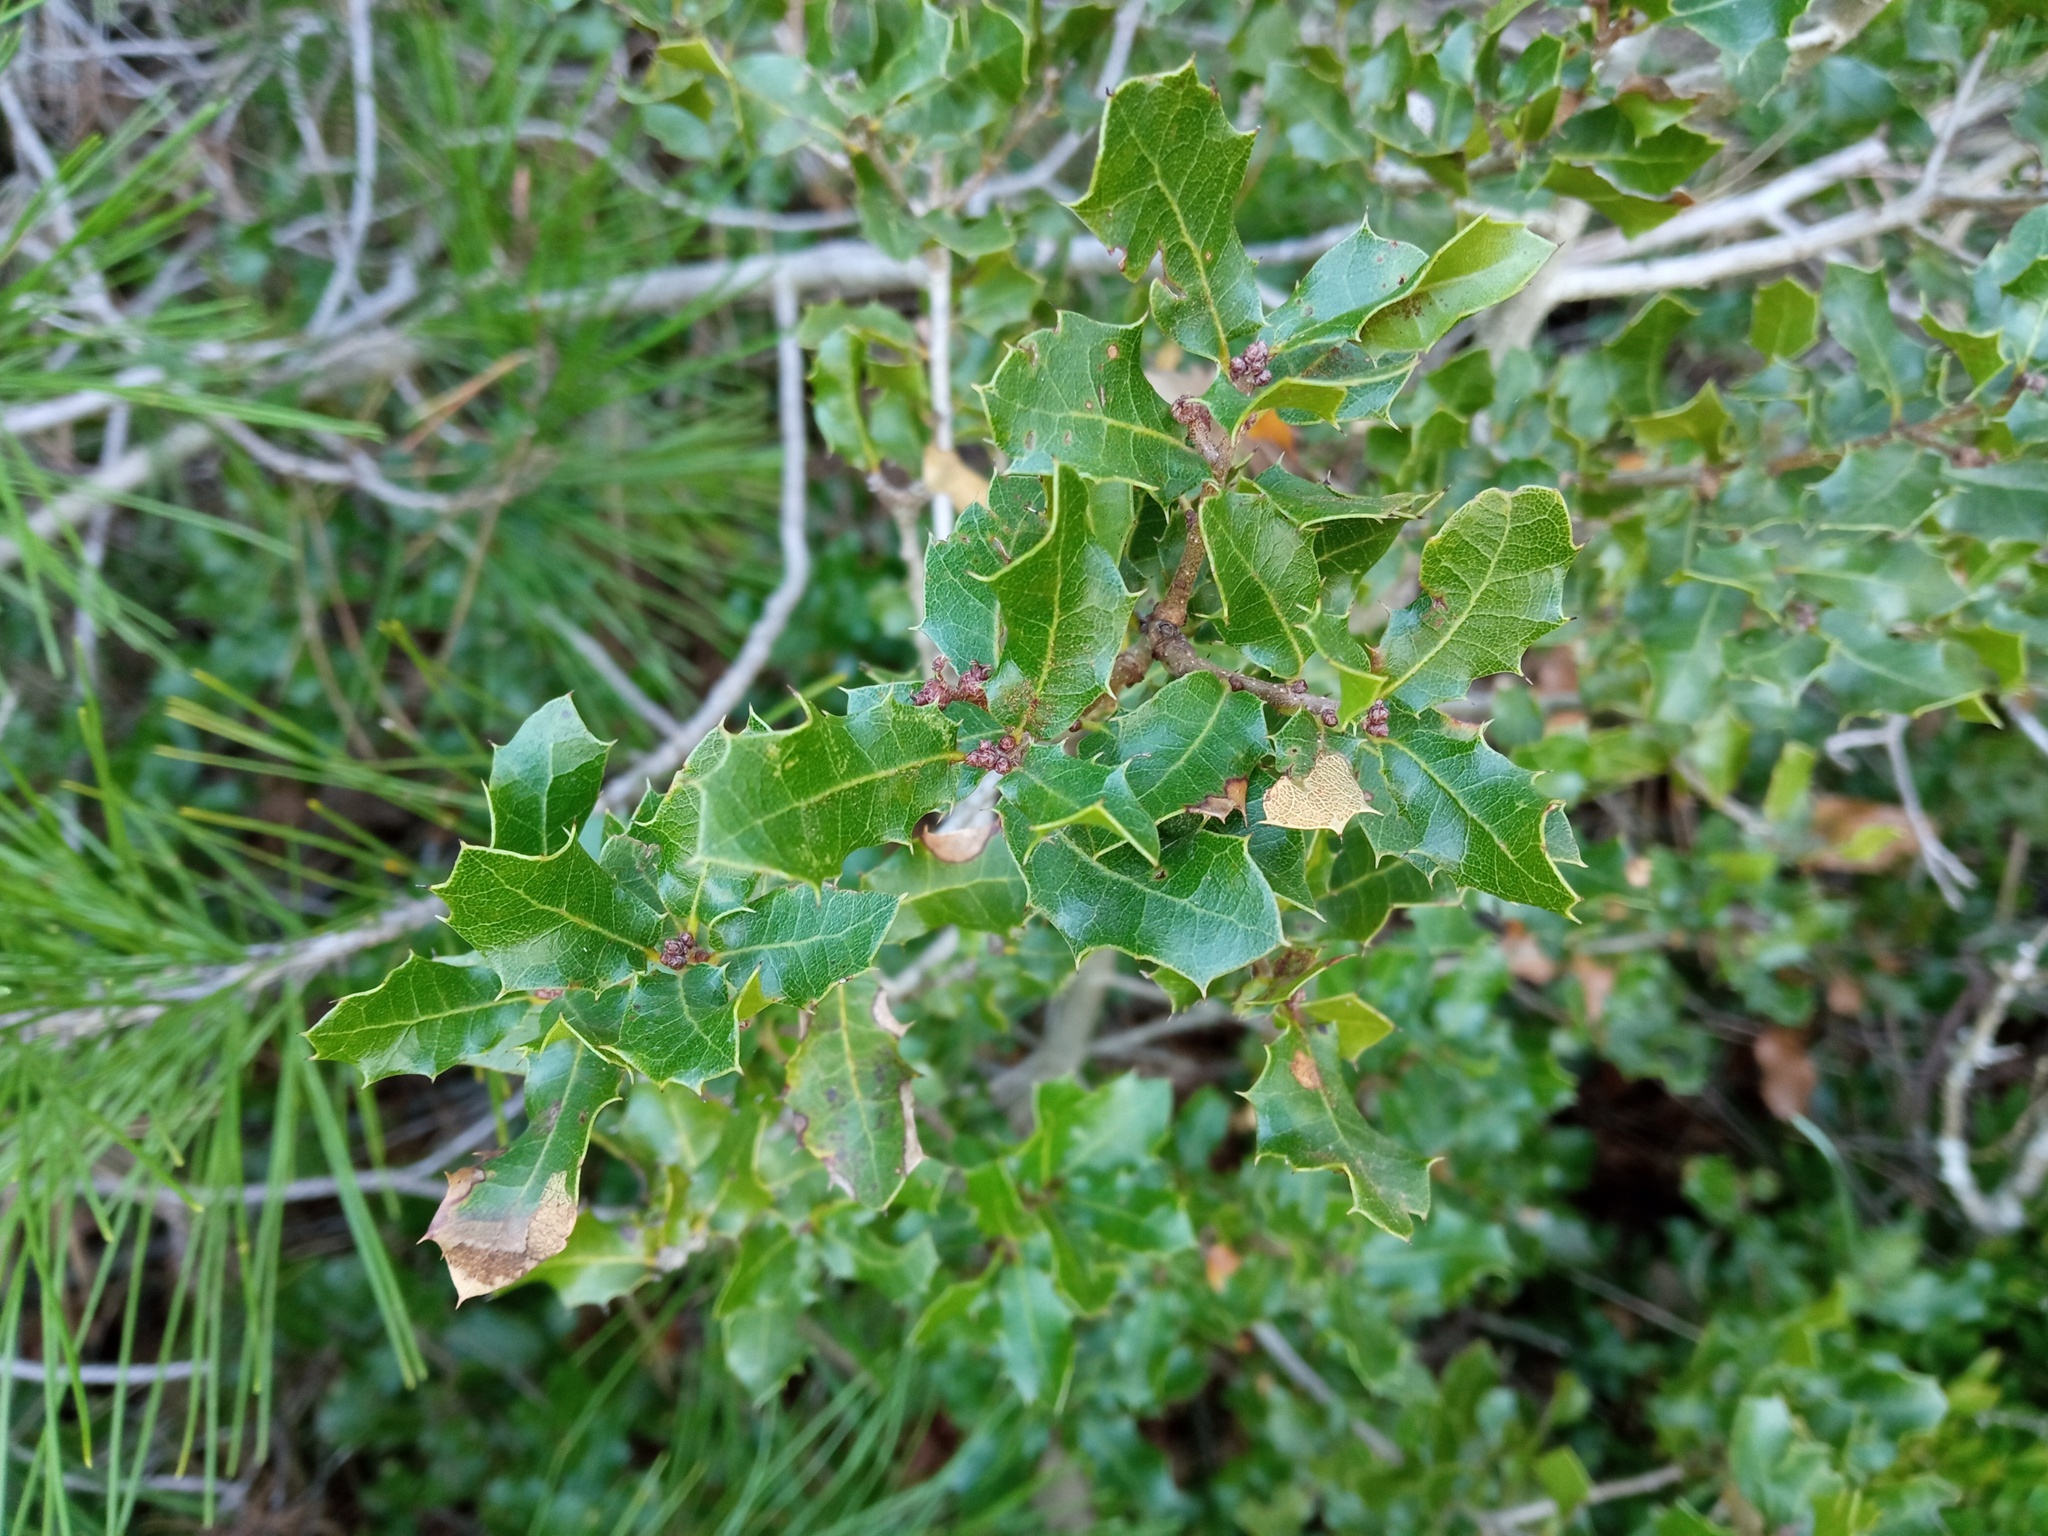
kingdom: Plantae
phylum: Tracheophyta
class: Magnoliopsida
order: Fagales
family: Fagaceae
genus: Quercus
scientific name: Quercus coccifera
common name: Kermes oak
